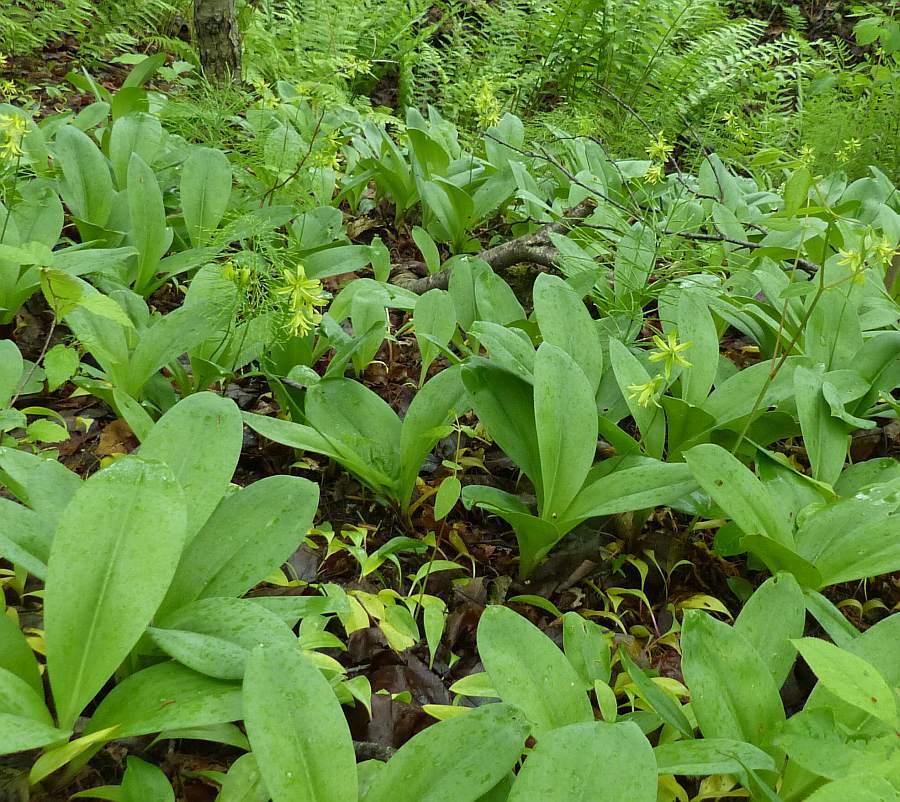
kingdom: Plantae
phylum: Tracheophyta
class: Liliopsida
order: Liliales
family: Liliaceae
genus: Clintonia
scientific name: Clintonia borealis
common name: Yellow clintonia
